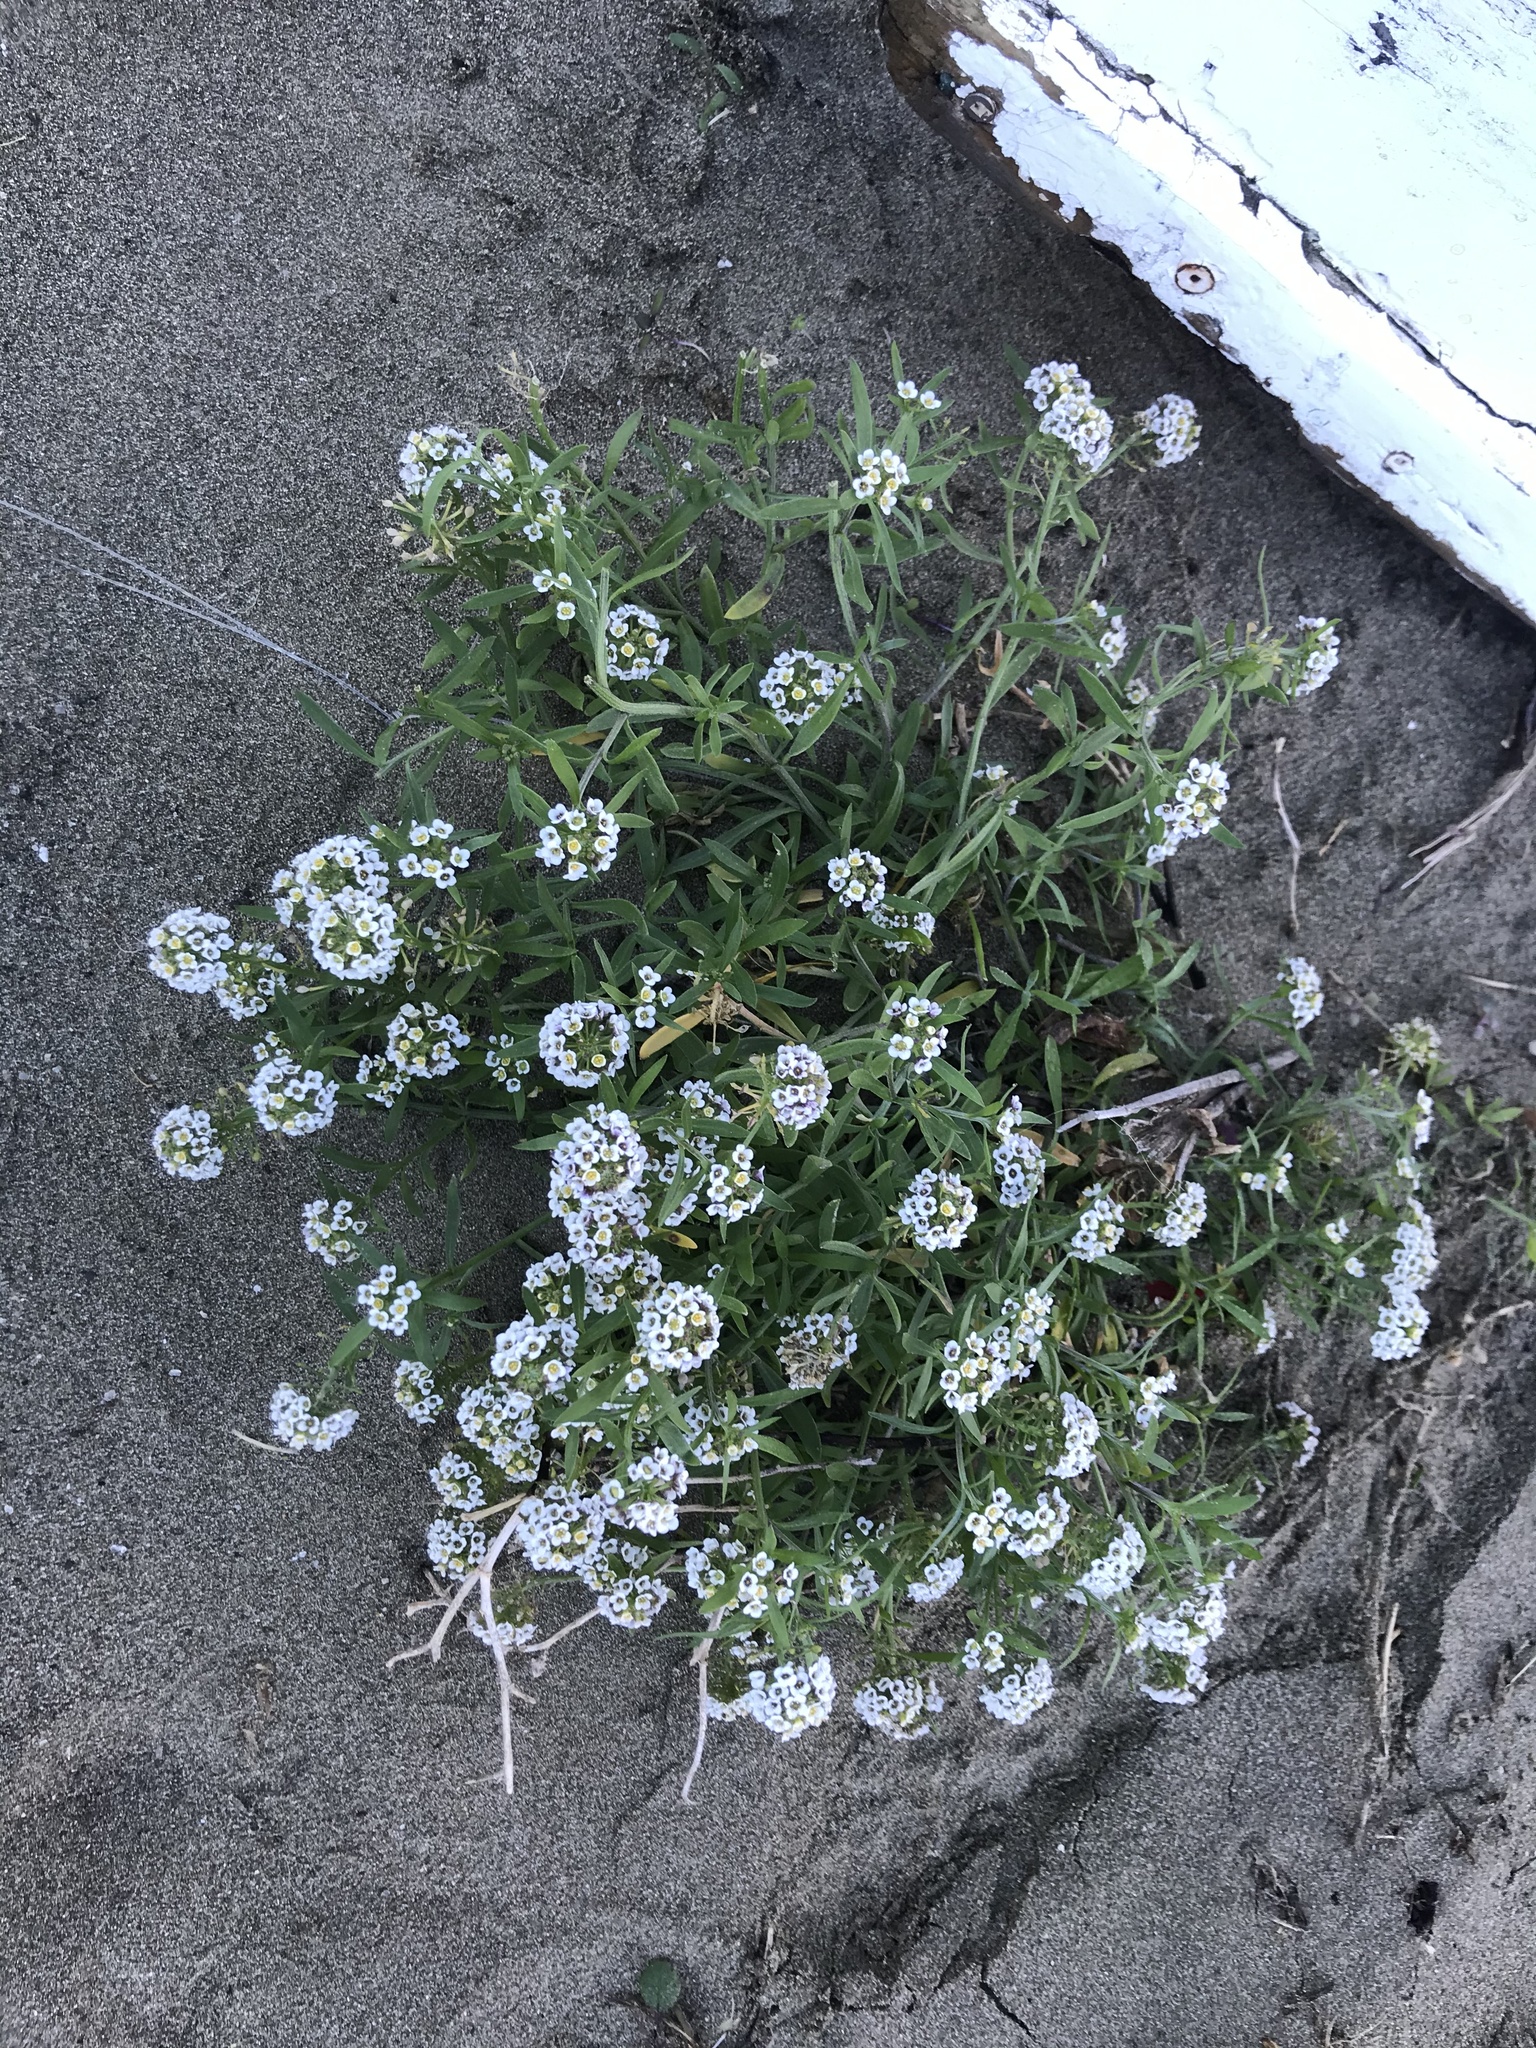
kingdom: Plantae
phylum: Tracheophyta
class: Magnoliopsida
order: Brassicales
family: Brassicaceae
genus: Lobularia
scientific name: Lobularia maritima
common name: Sweet alison
